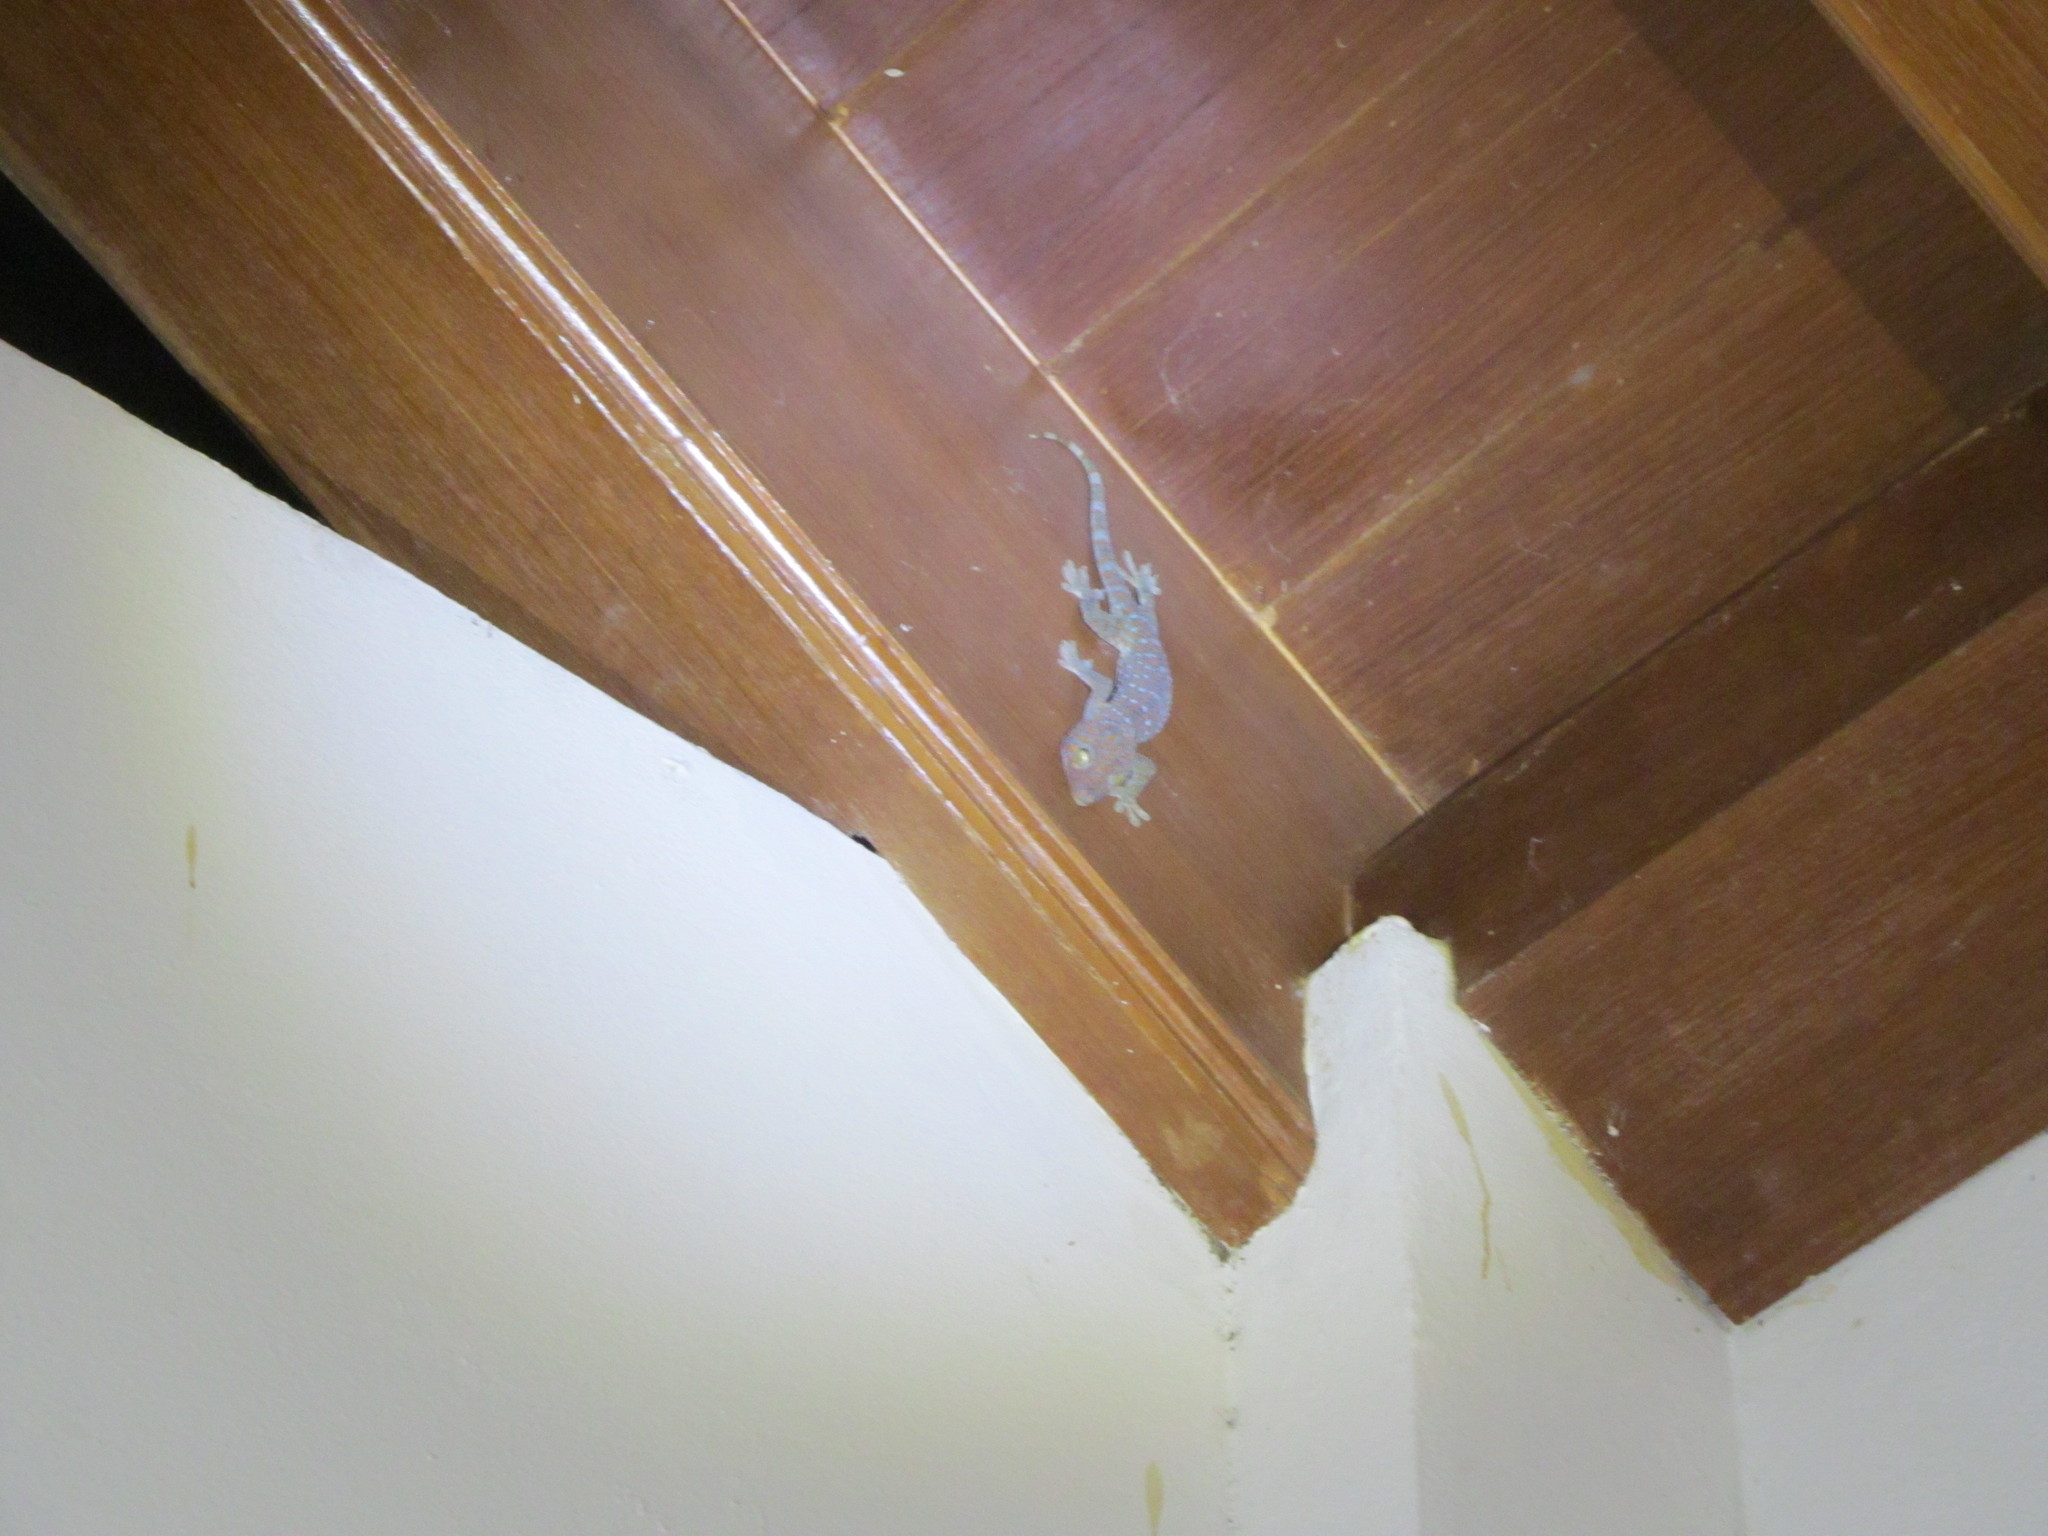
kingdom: Animalia
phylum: Chordata
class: Squamata
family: Gekkonidae
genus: Gekko
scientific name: Gekko gecko
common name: Tokay gecko
